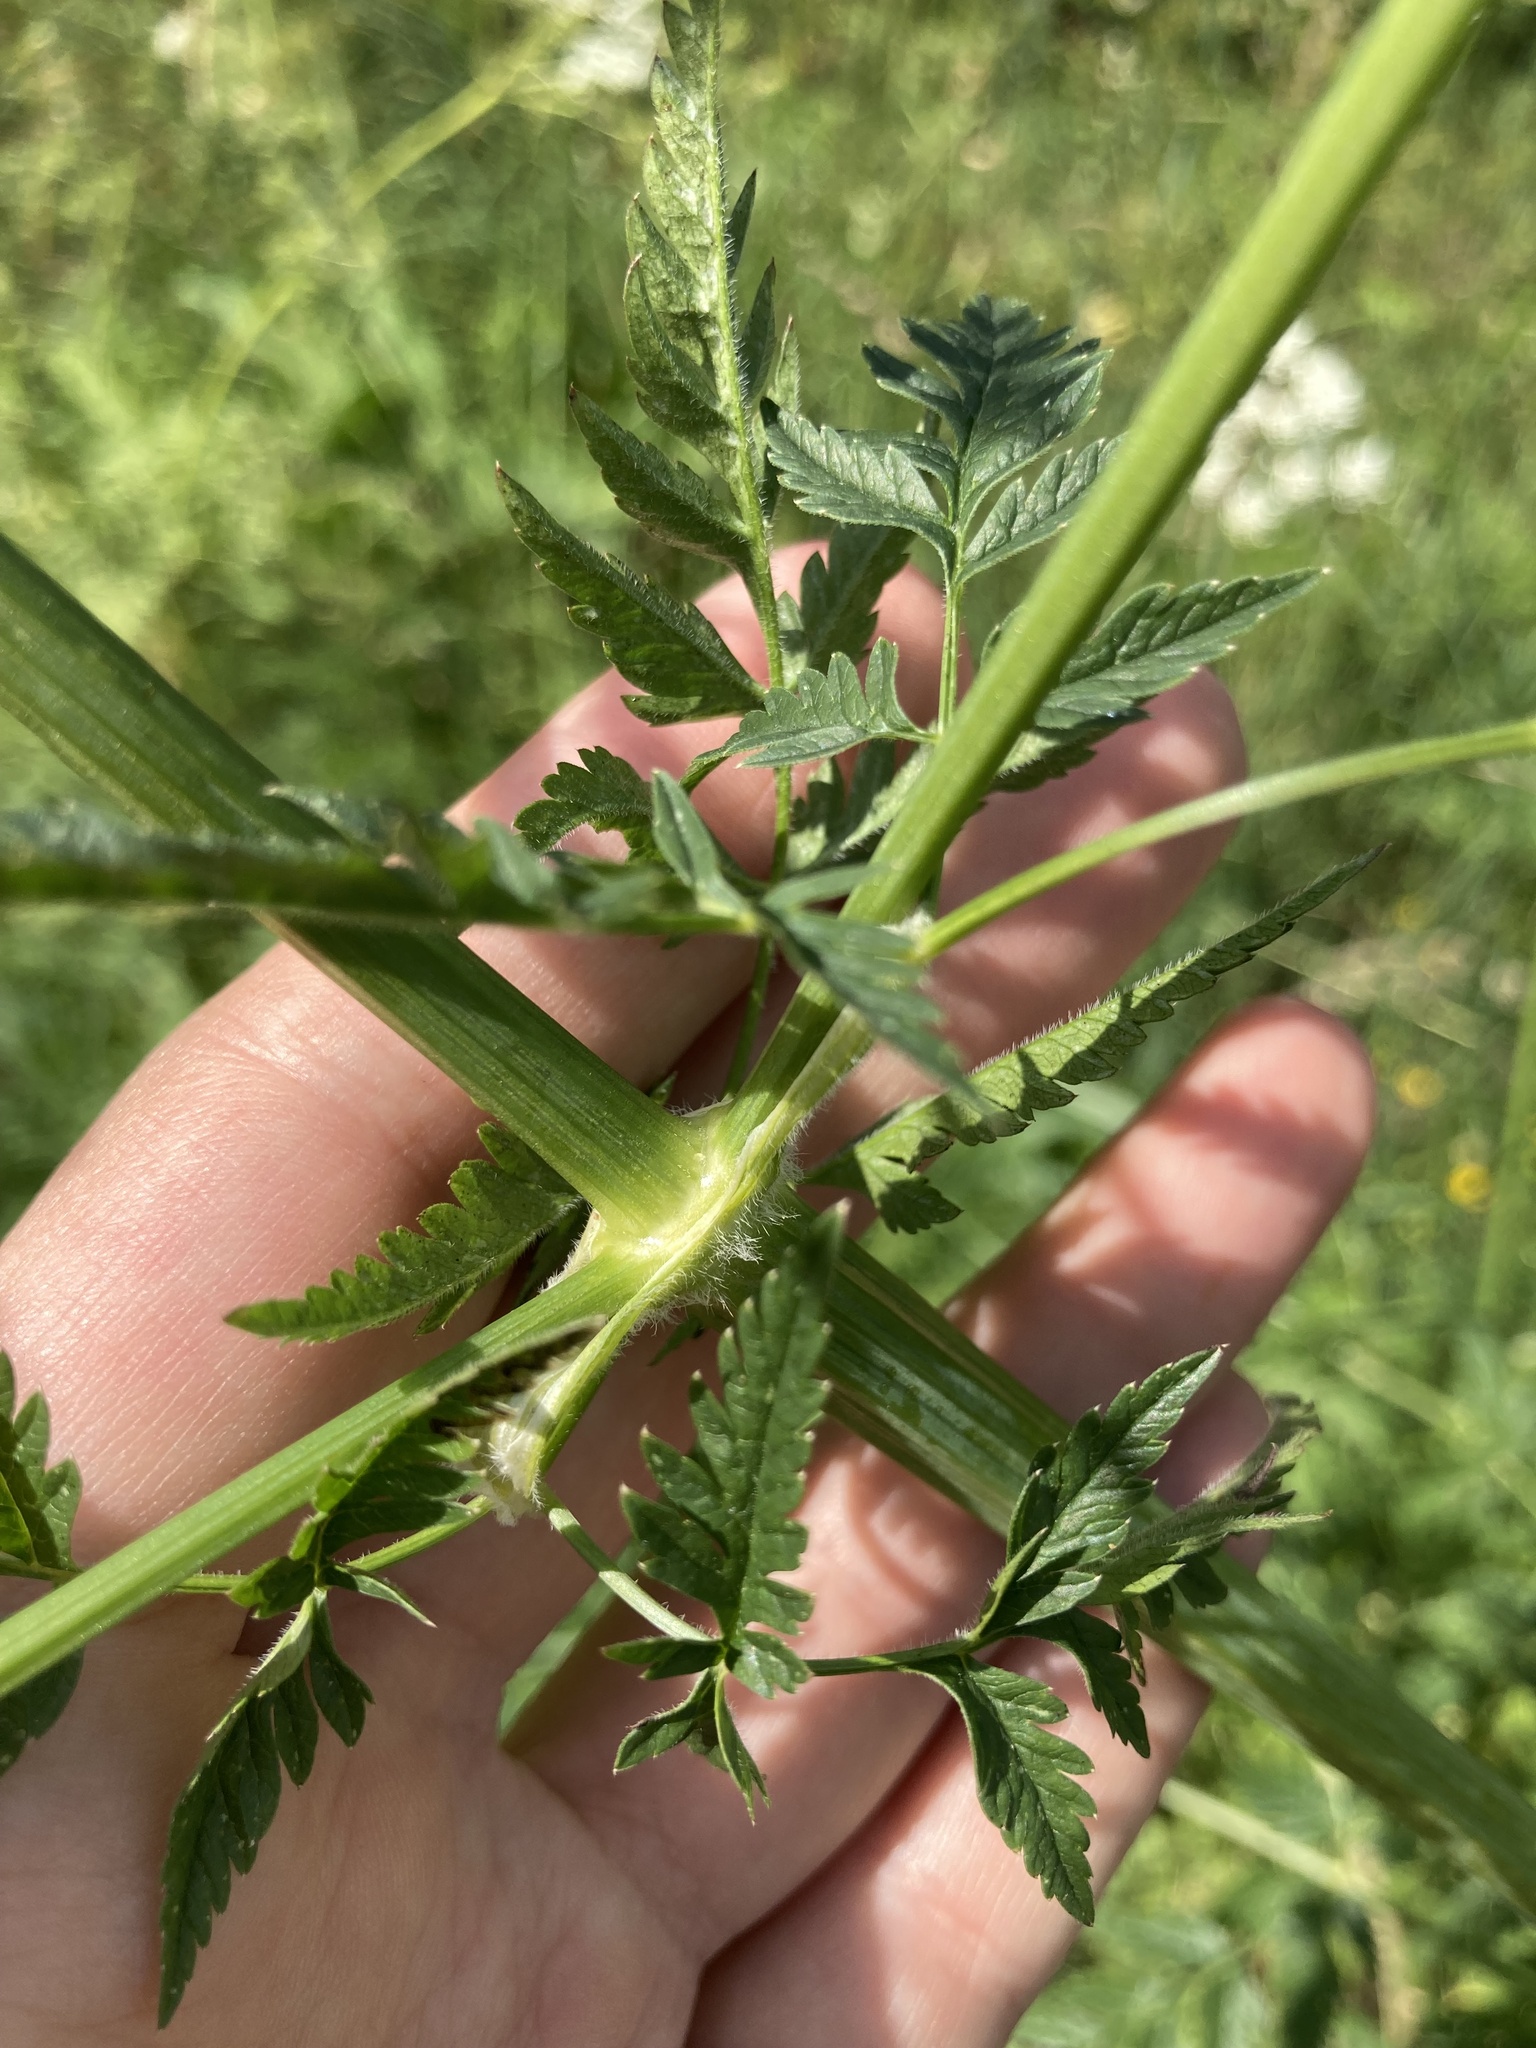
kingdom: Plantae
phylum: Tracheophyta
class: Magnoliopsida
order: Apiales
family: Apiaceae
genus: Anthriscus
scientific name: Anthriscus sylvestris
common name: Cow parsley
